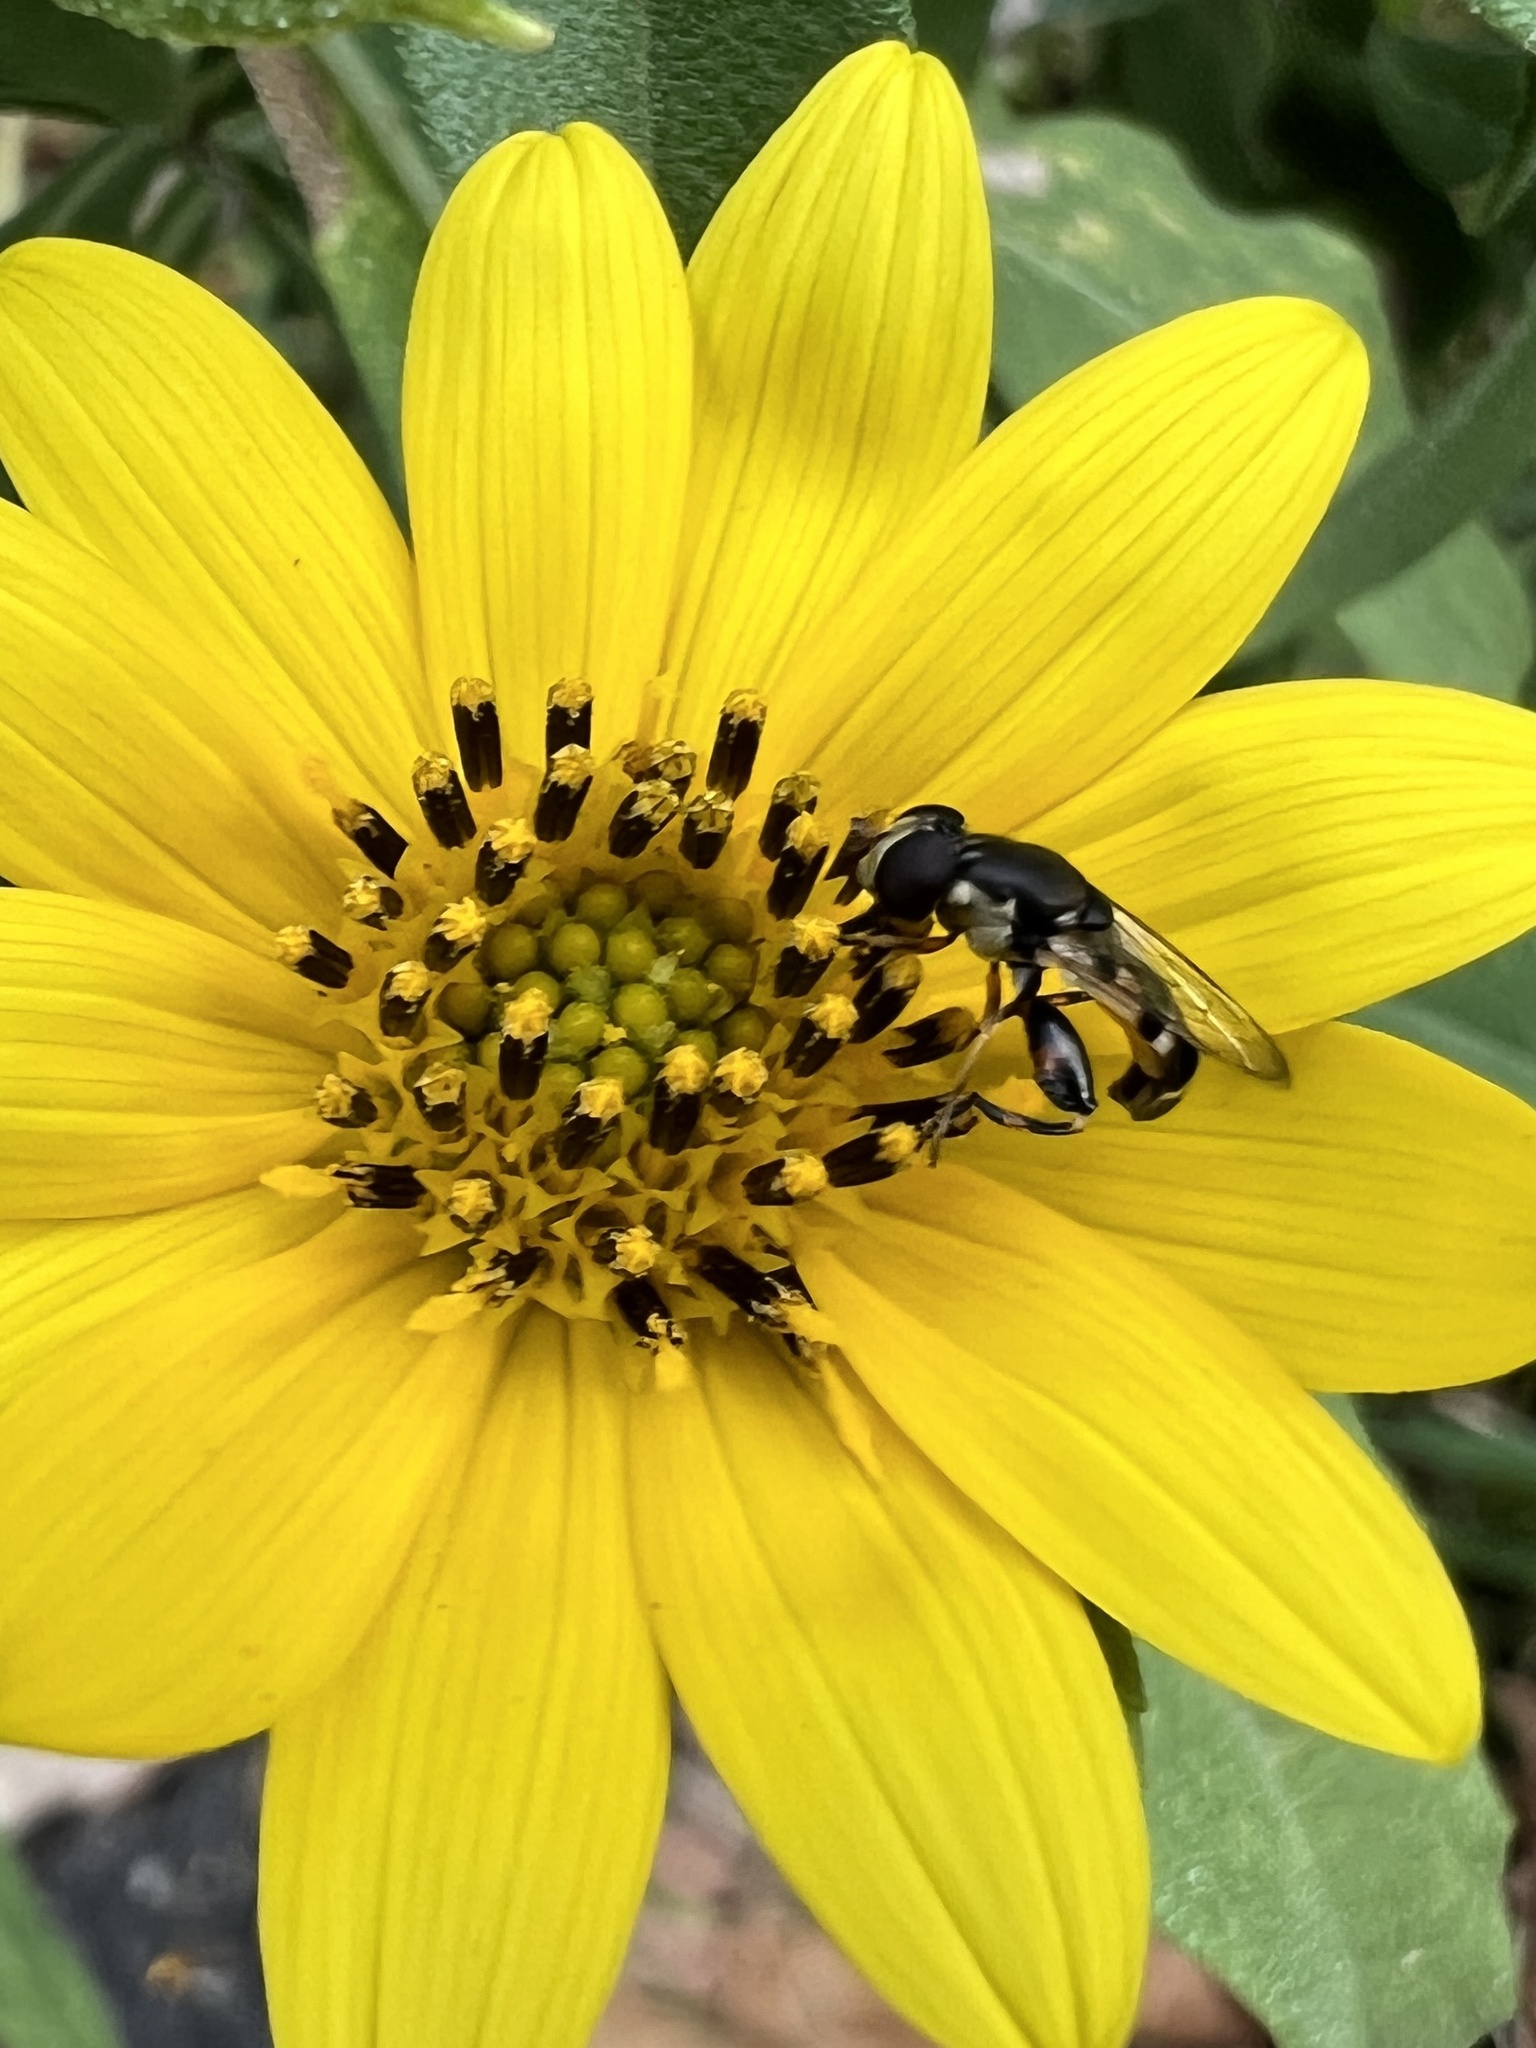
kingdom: Animalia
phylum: Arthropoda
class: Insecta
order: Diptera
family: Syrphidae
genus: Syritta
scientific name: Syritta pipiens
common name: Hover fly
